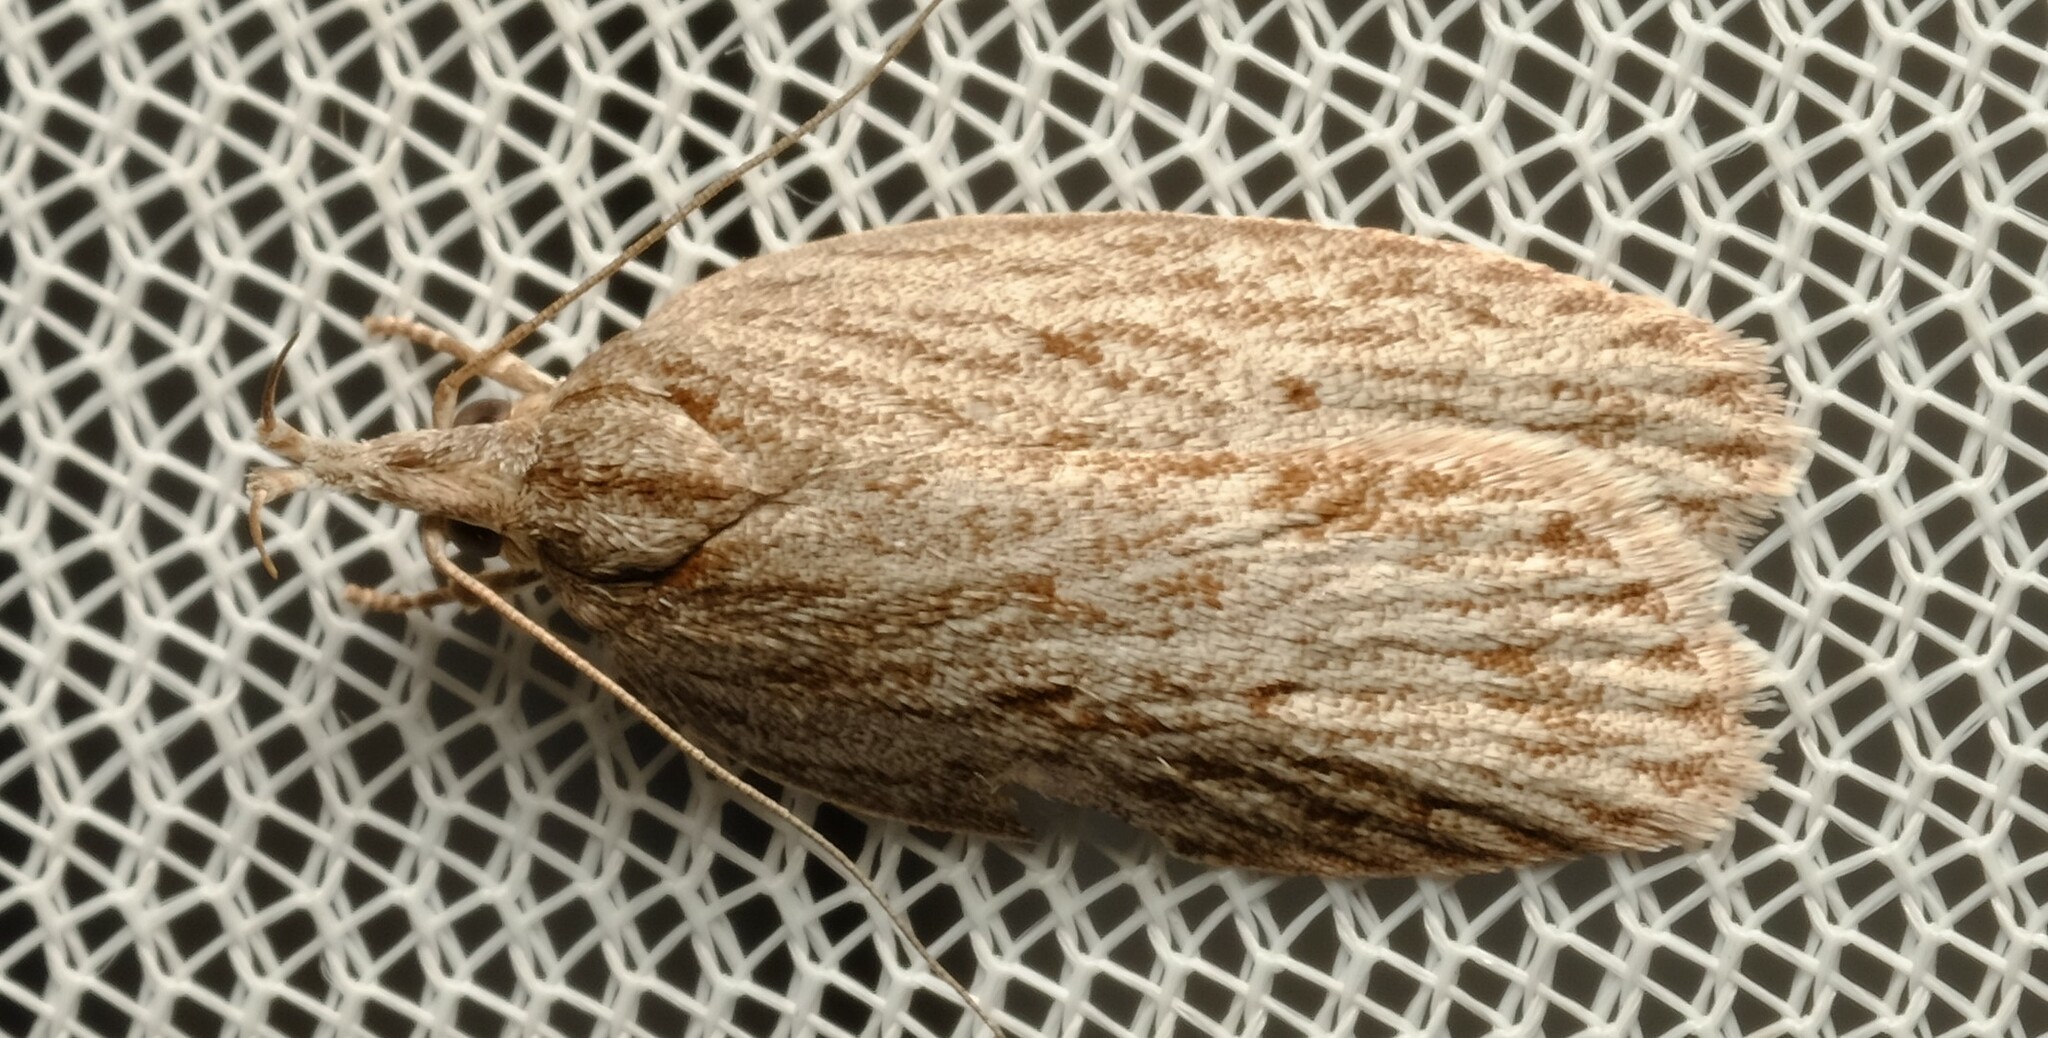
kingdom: Animalia
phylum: Arthropoda
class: Insecta
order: Lepidoptera
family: Depressariidae
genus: Pedois
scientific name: Pedois lewinella
